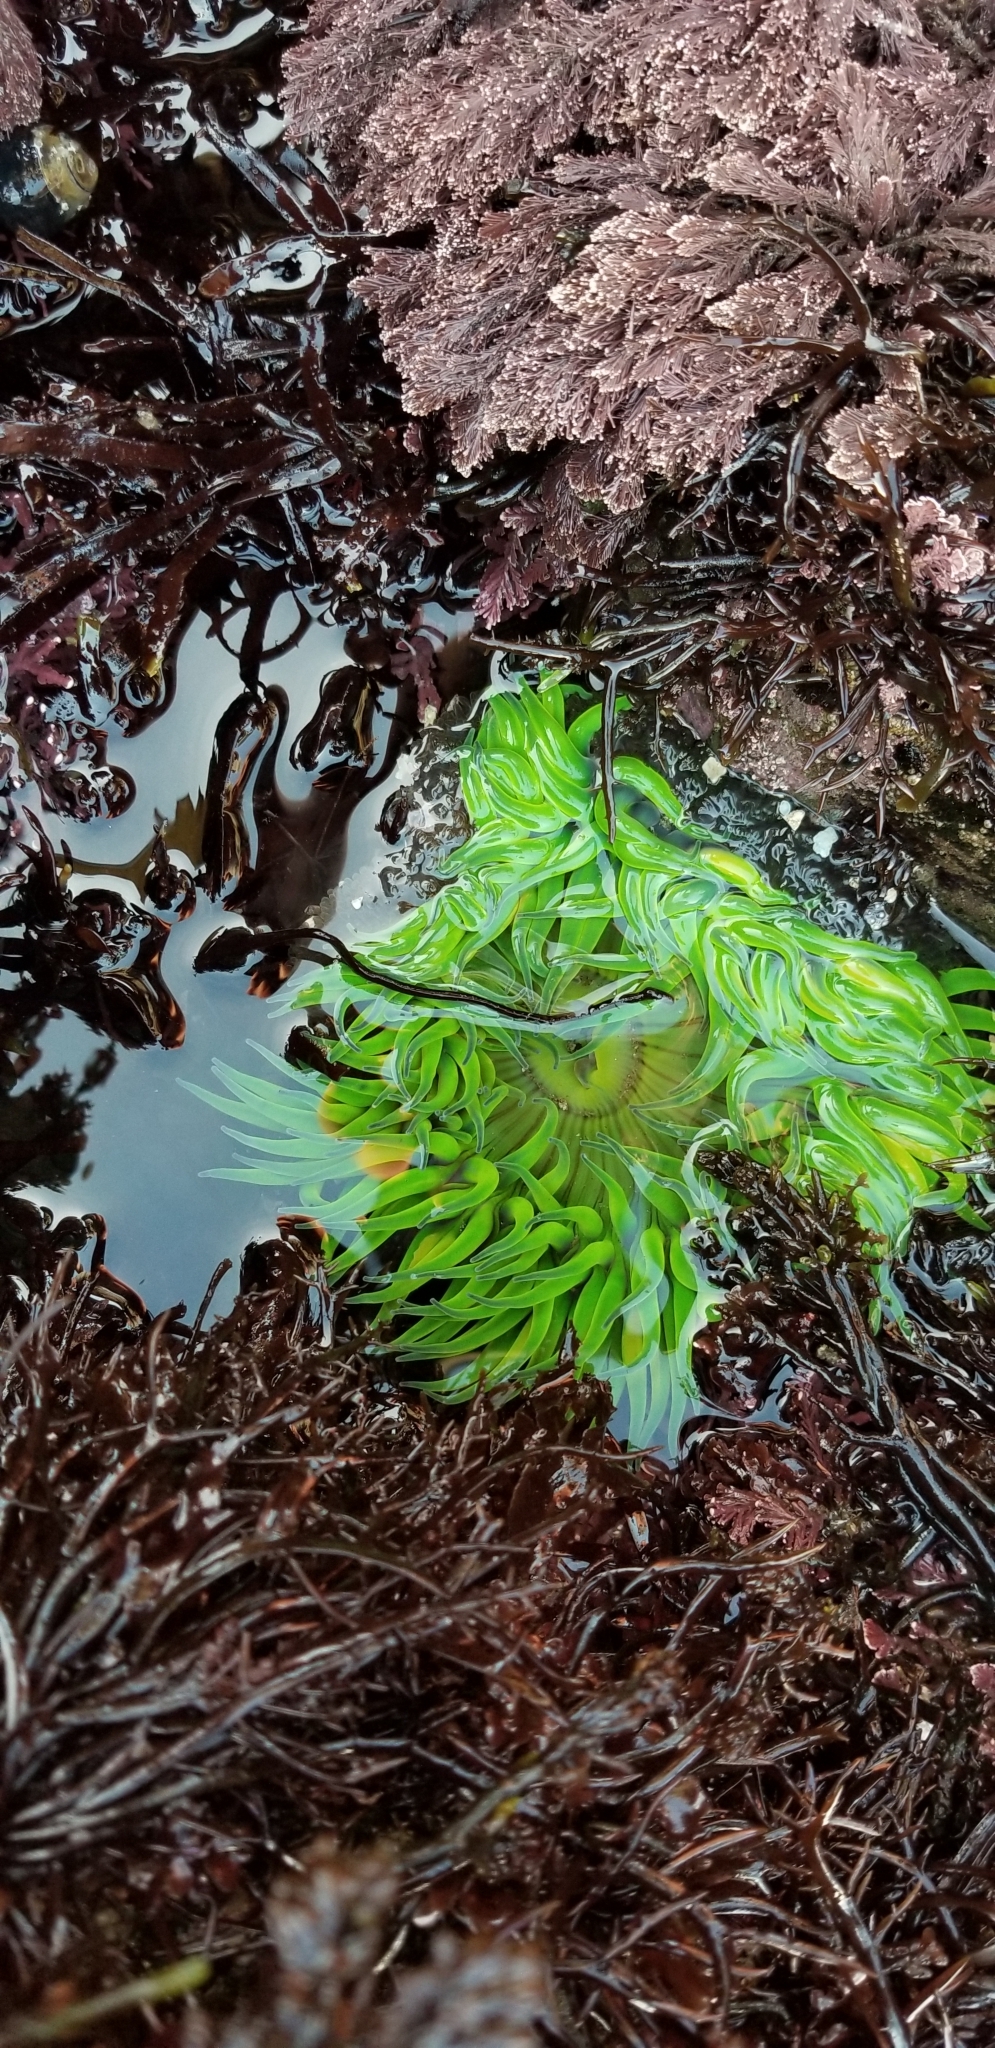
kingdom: Animalia
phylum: Cnidaria
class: Anthozoa
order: Actiniaria
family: Actiniidae
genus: Anthopleura
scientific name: Anthopleura sola
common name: Sun anemone
